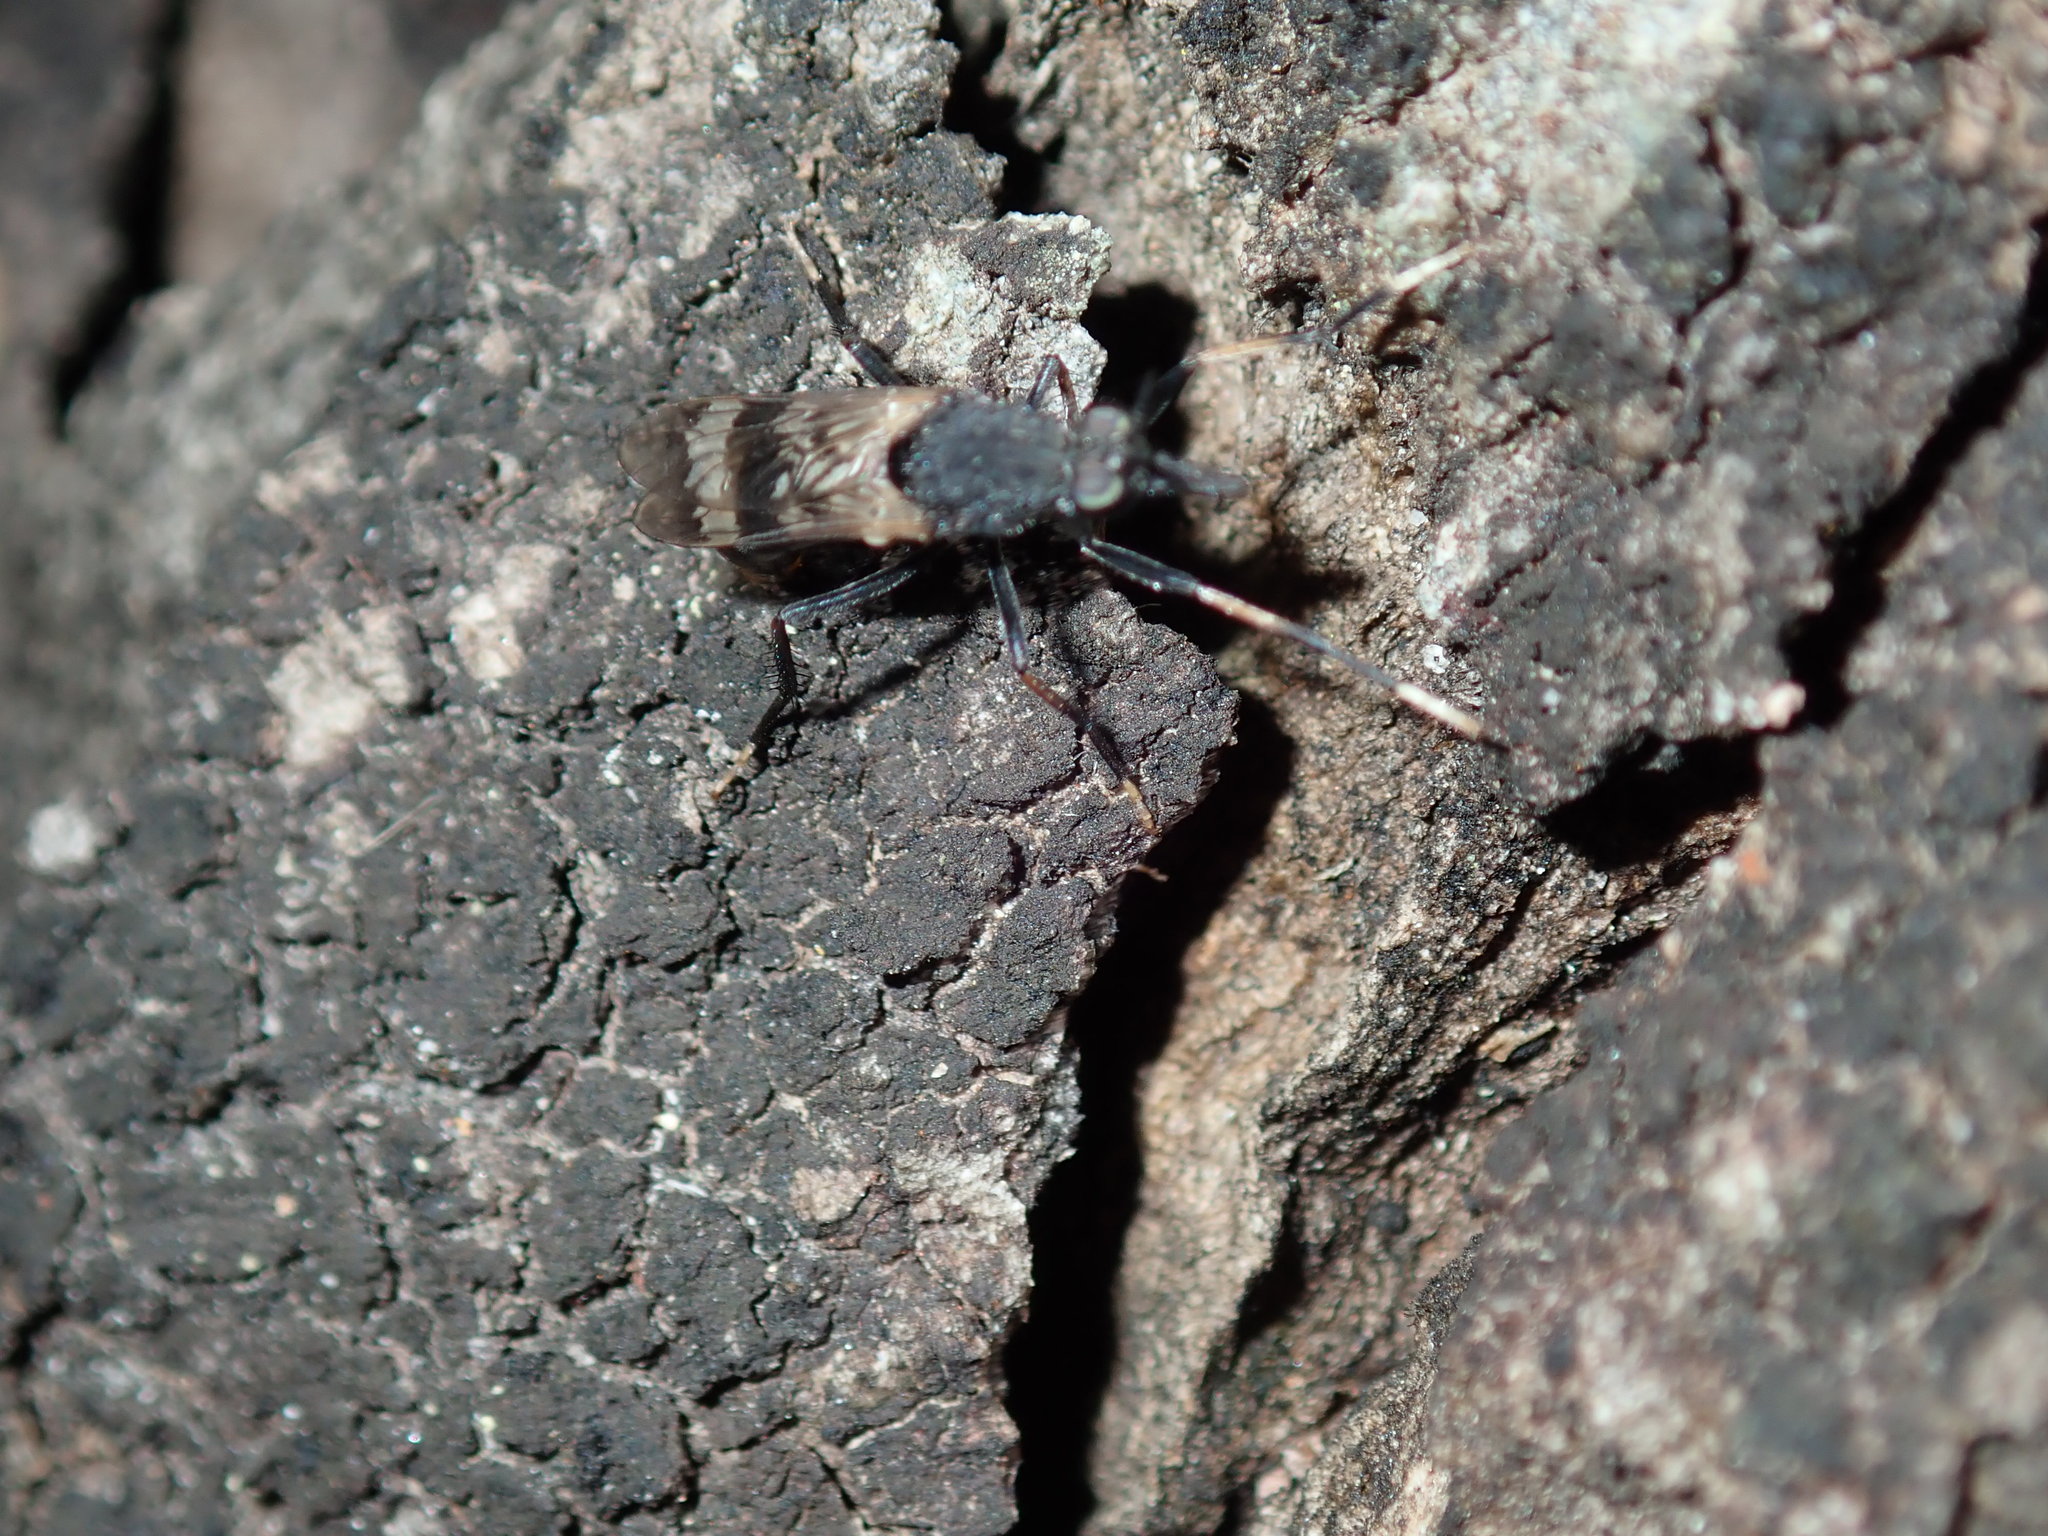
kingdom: Animalia
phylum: Arthropoda
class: Insecta
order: Diptera
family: Therevidae
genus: Acupalpa
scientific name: Acupalpa albitarsa
